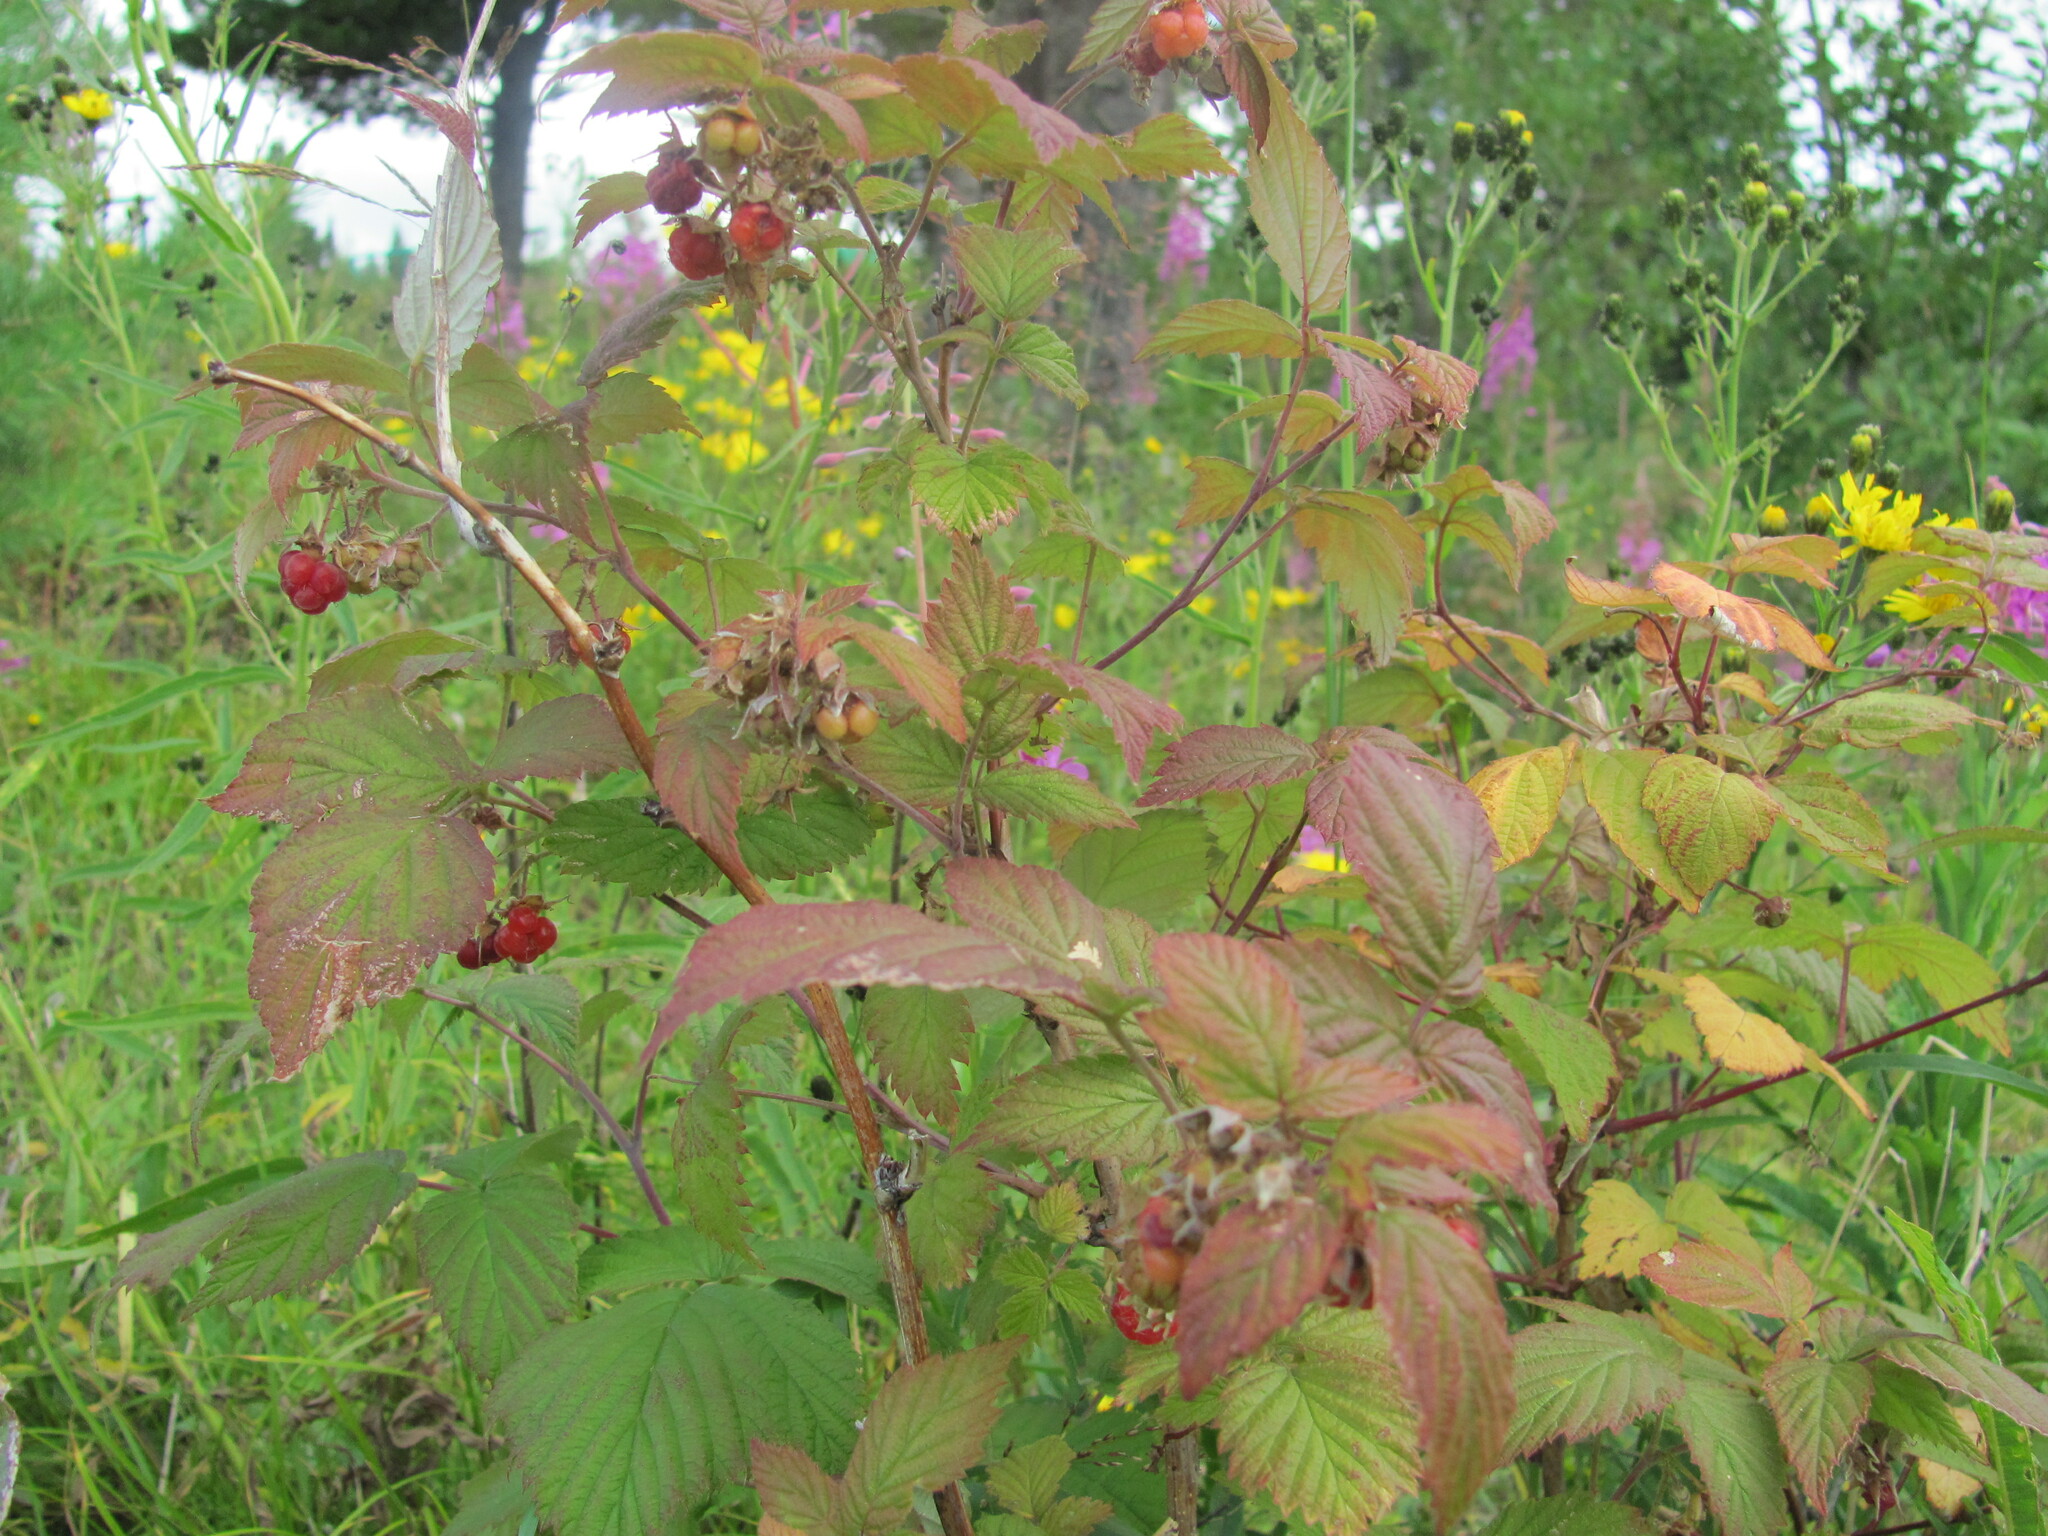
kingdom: Plantae
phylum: Tracheophyta
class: Magnoliopsida
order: Rosales
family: Rosaceae
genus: Rubus
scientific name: Rubus idaeus
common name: Raspberry
